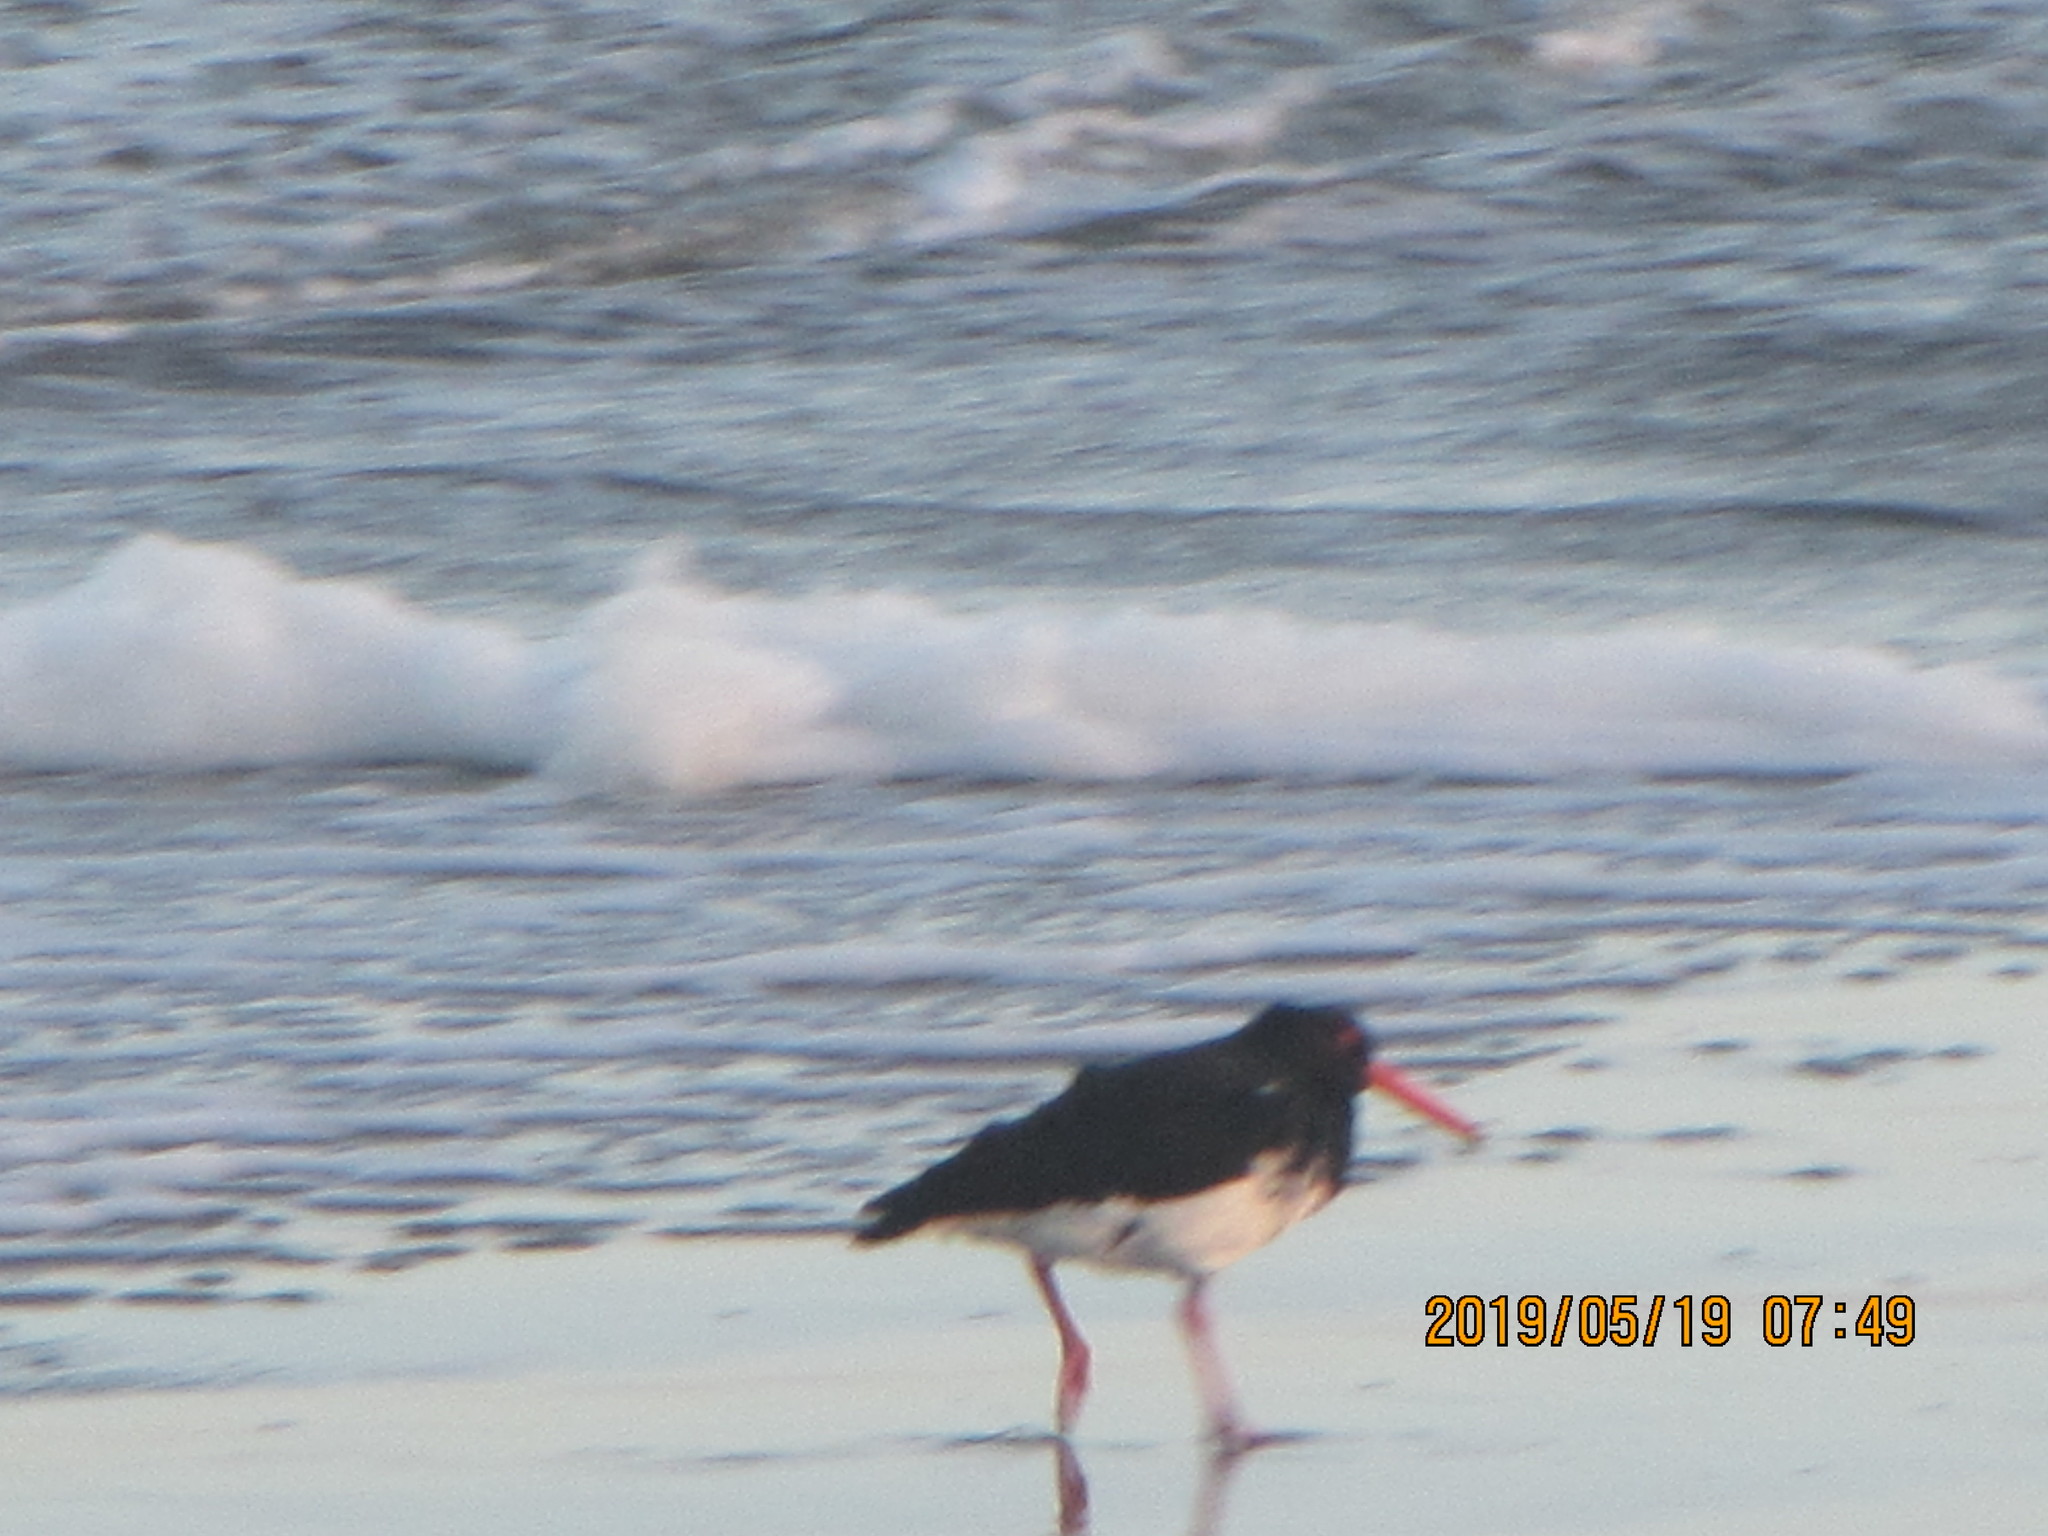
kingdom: Animalia
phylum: Chordata
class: Aves
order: Charadriiformes
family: Haematopodidae
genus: Haematopus
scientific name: Haematopus unicolor
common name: Variable oystercatcher
